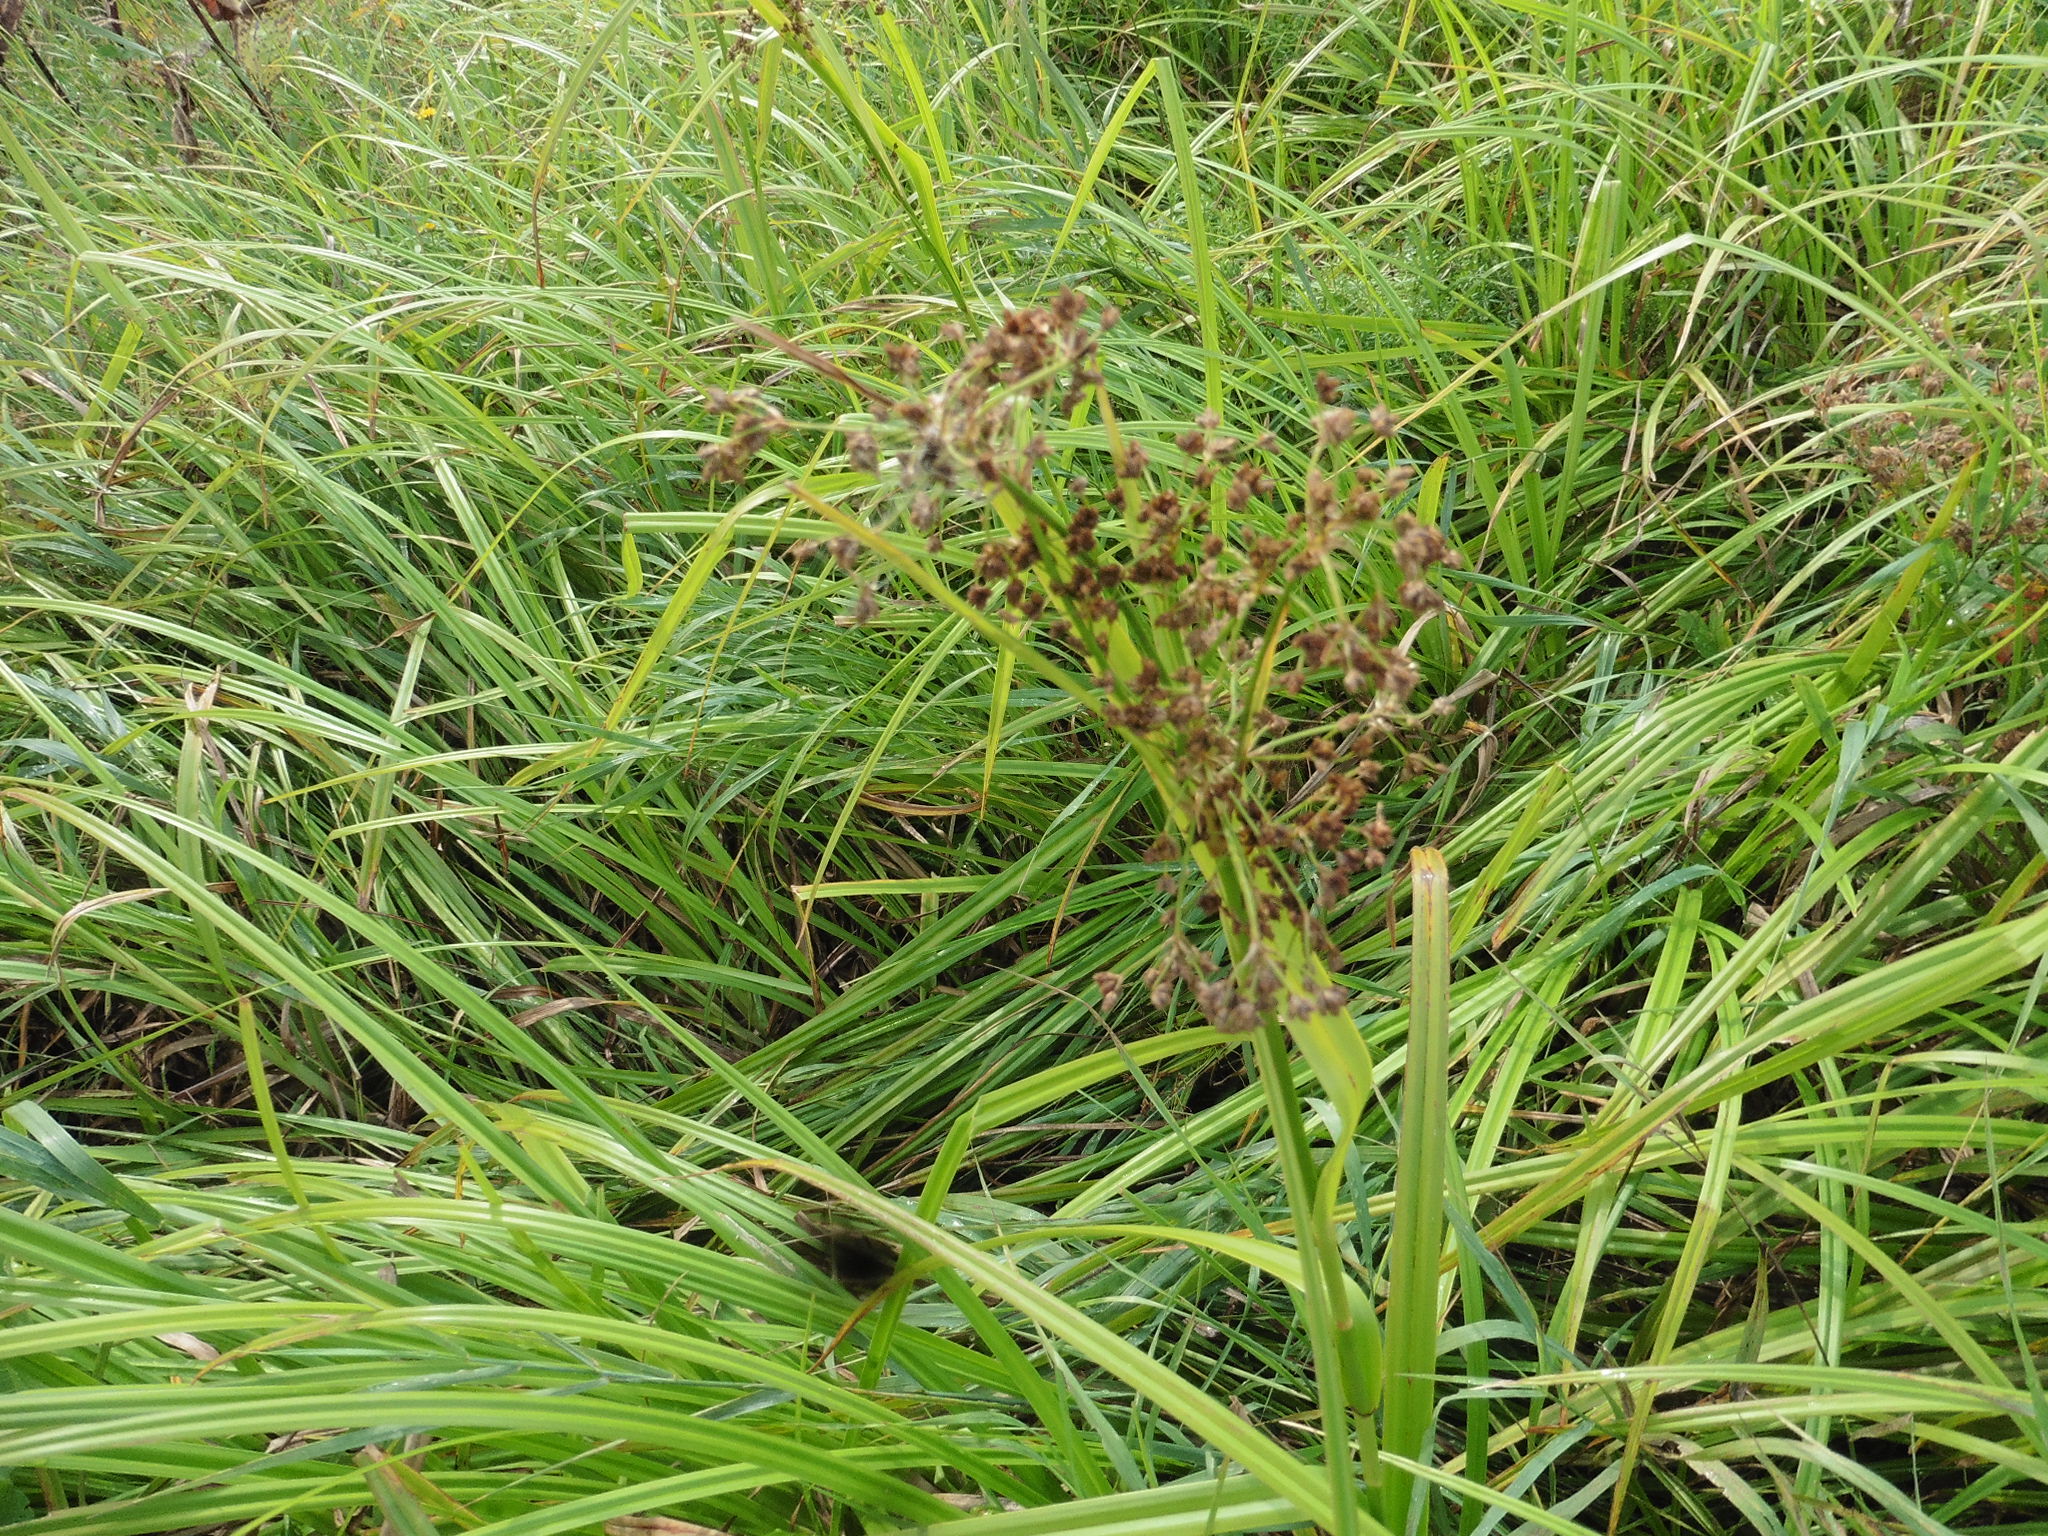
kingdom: Plantae
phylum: Tracheophyta
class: Liliopsida
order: Poales
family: Cyperaceae
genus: Scirpus
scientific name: Scirpus sylvaticus
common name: Wood club-rush
